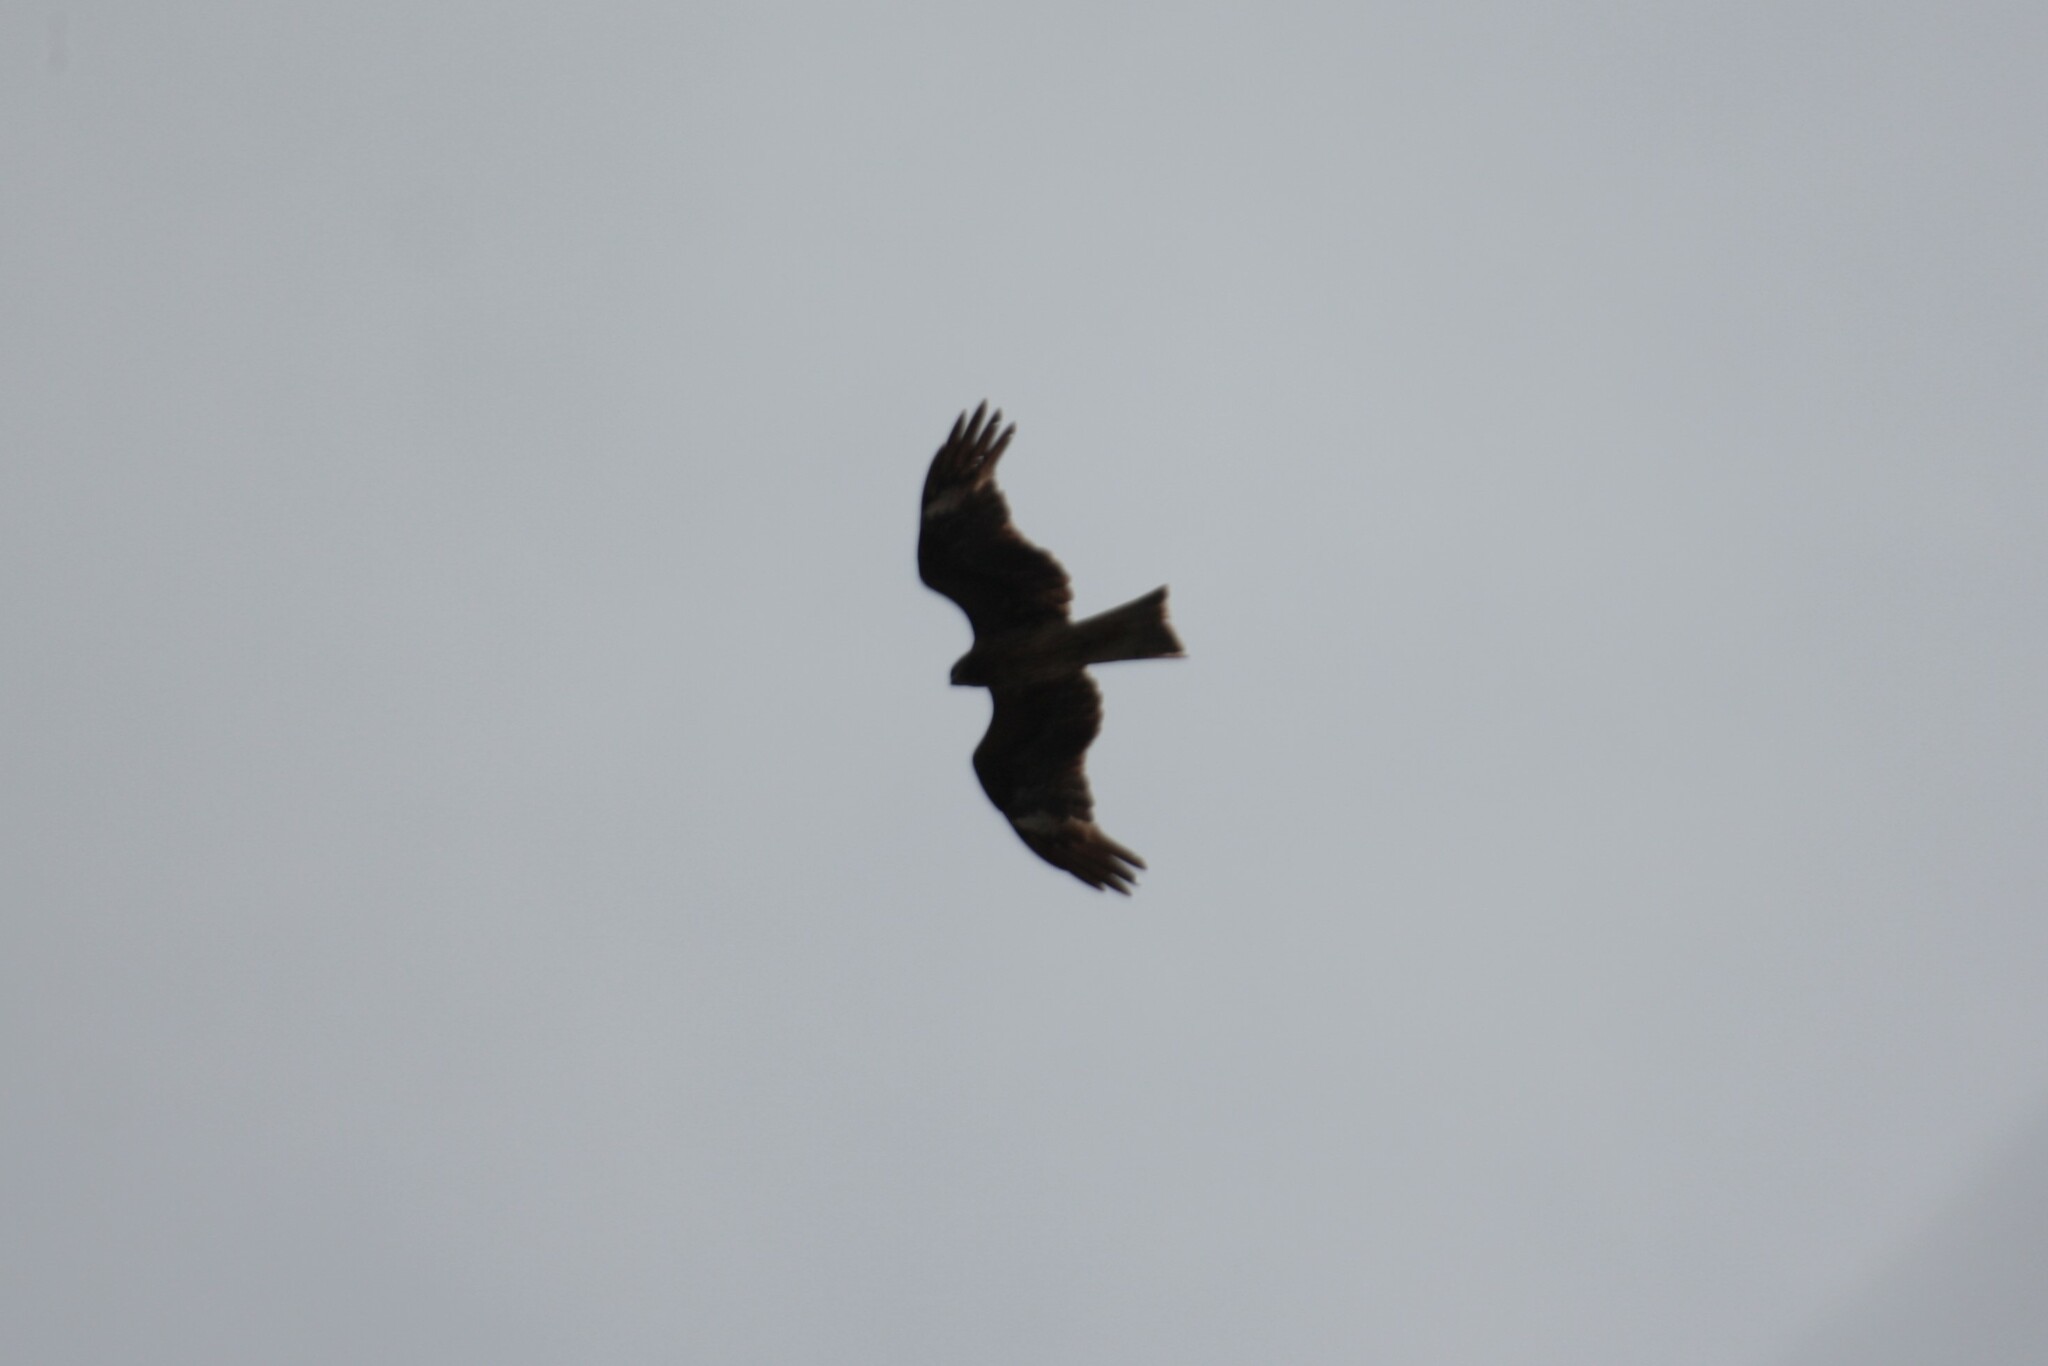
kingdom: Animalia
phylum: Chordata
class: Aves
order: Accipitriformes
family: Accipitridae
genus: Milvus
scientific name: Milvus migrans
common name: Black kite
